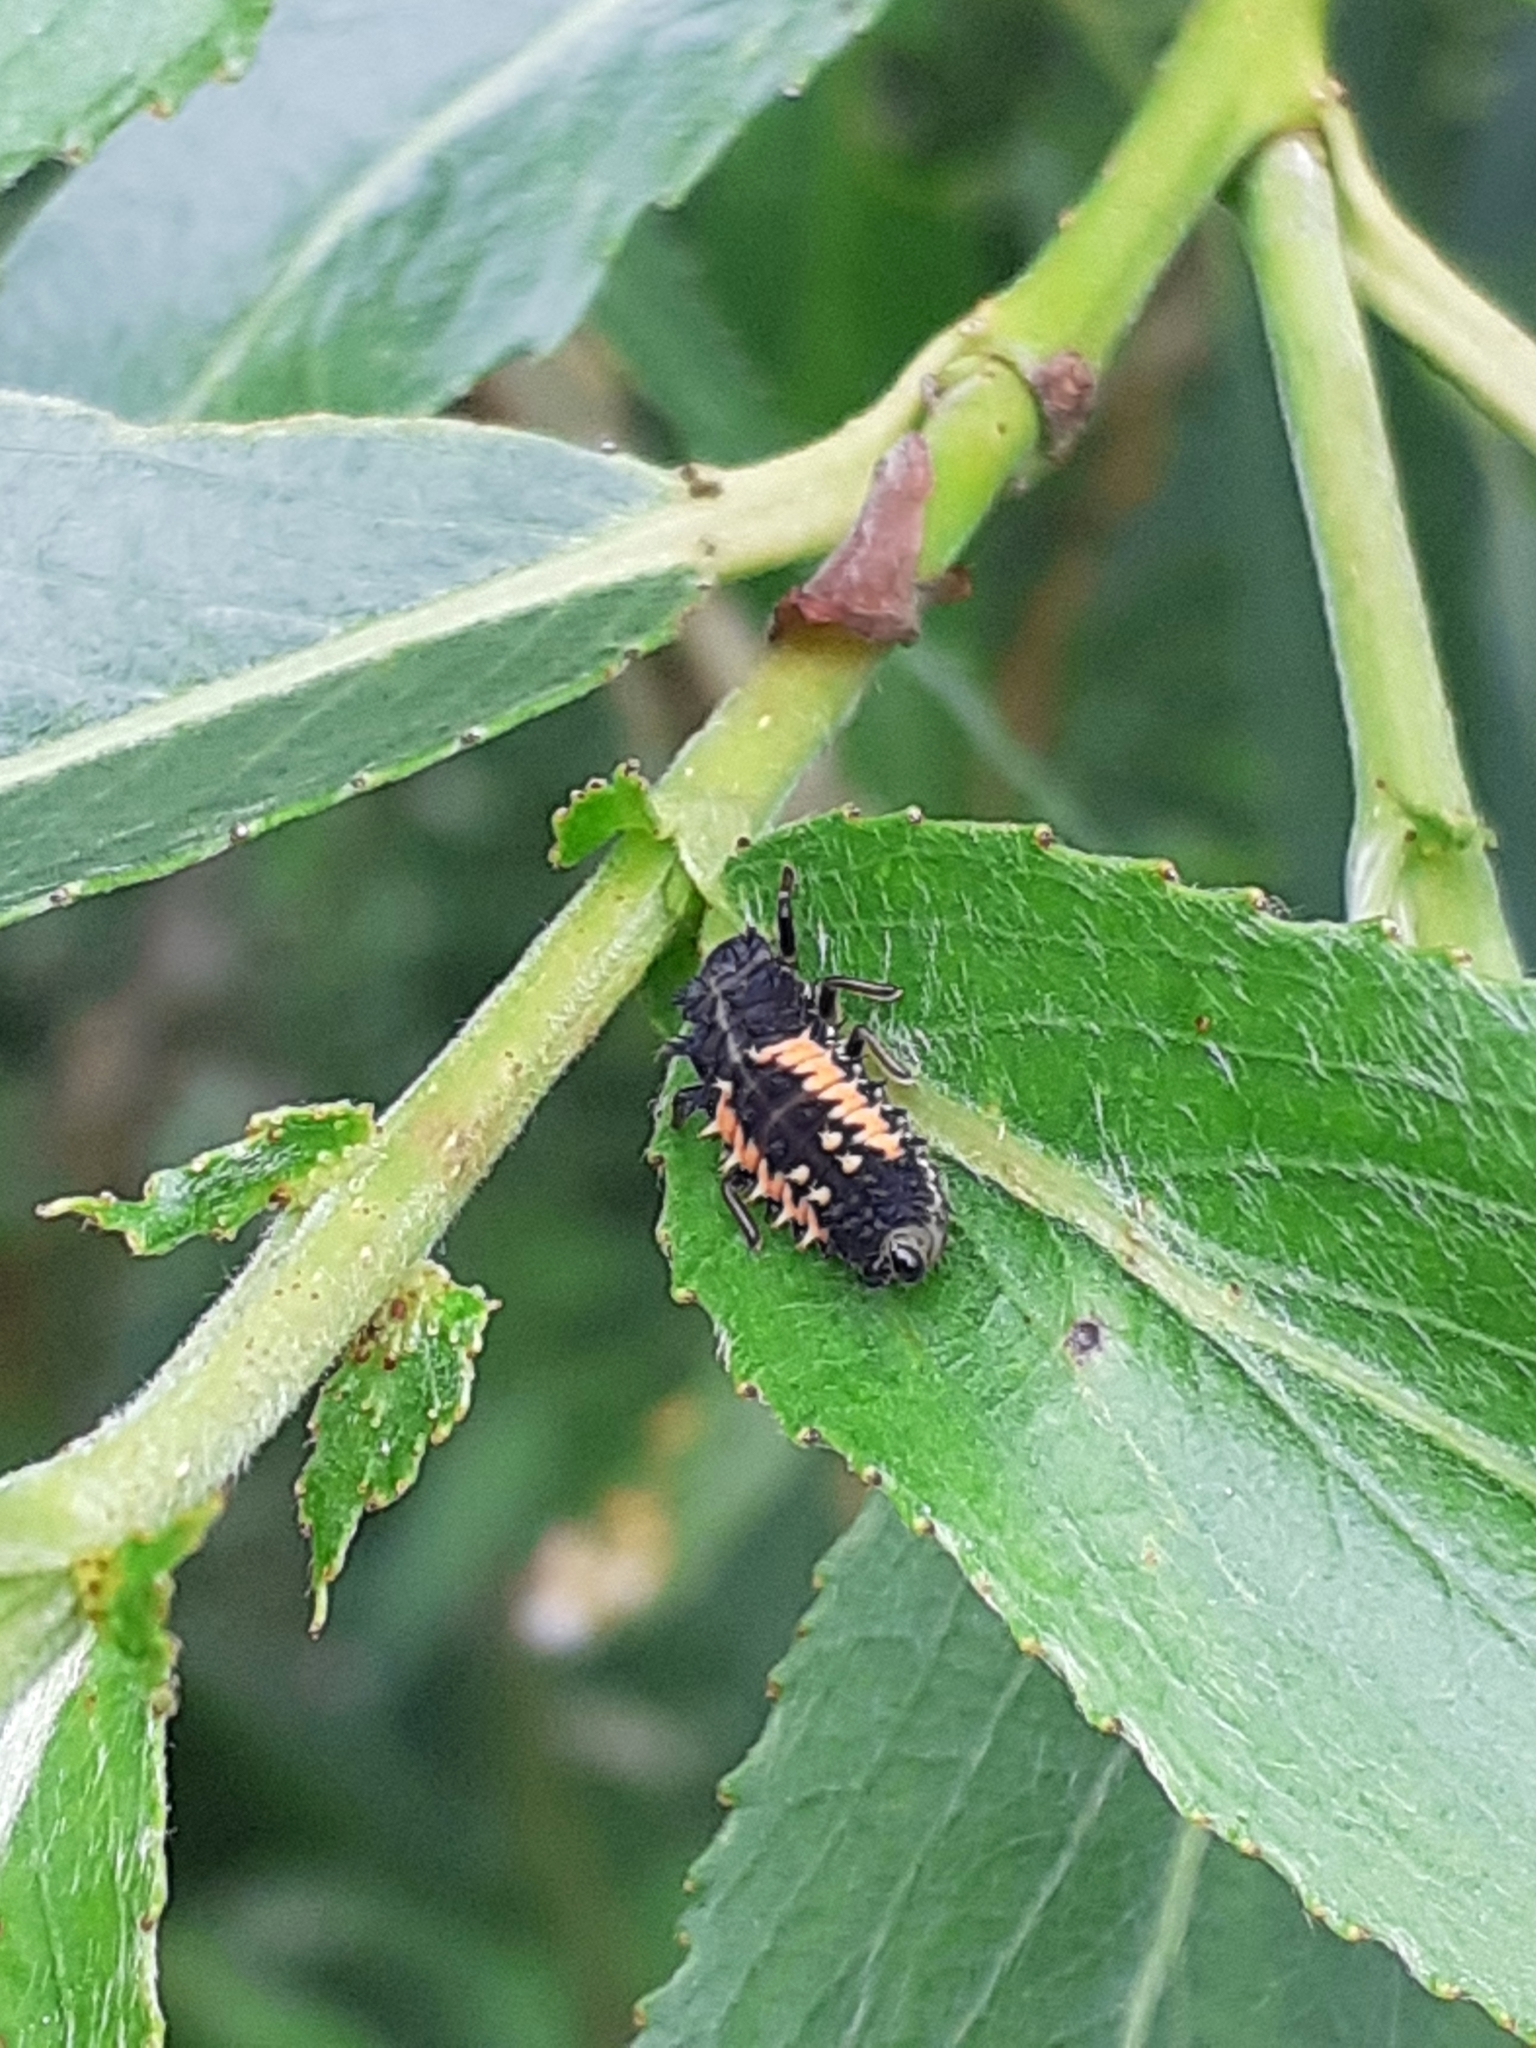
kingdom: Animalia
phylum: Arthropoda
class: Insecta
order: Coleoptera
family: Coccinellidae
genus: Harmonia
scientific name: Harmonia axyridis
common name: Harlequin ladybird
